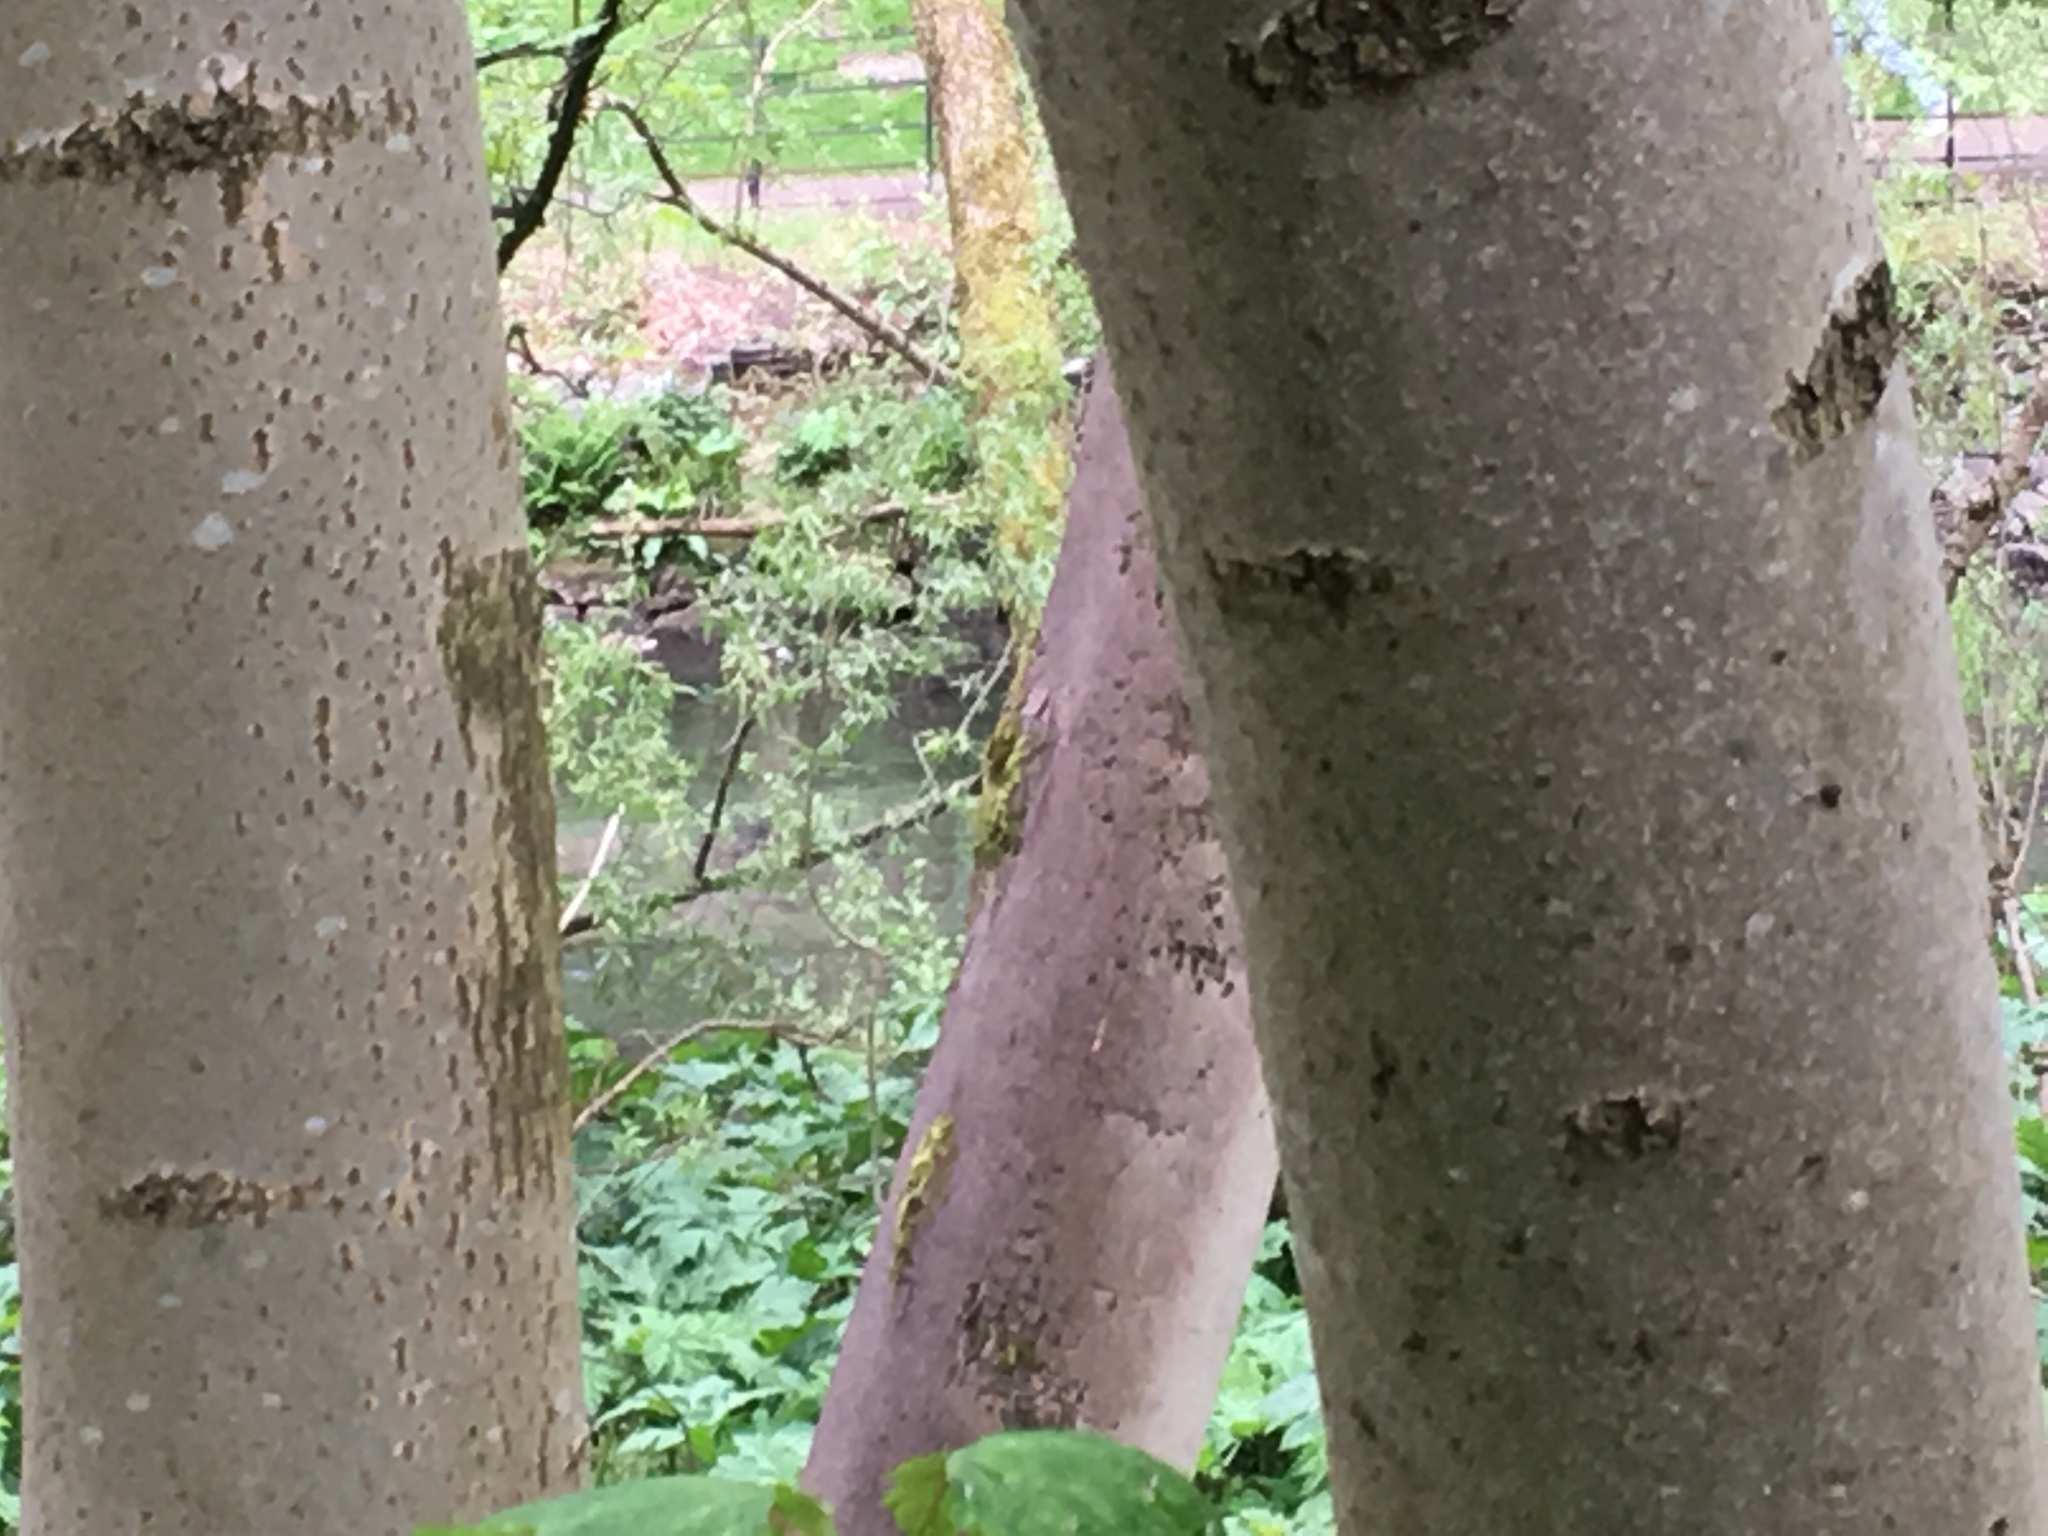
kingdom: Animalia
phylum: Chordata
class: Aves
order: Anseriformes
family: Anatidae
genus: Anas
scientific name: Anas platyrhynchos
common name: Mallard
